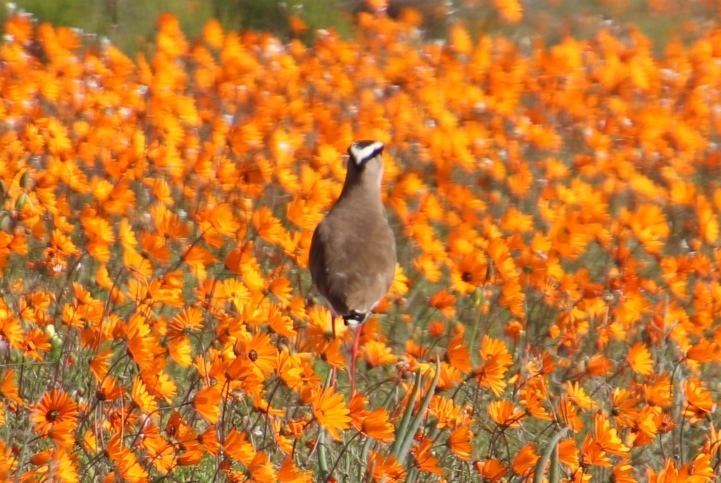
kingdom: Animalia
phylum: Chordata
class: Aves
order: Charadriiformes
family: Charadriidae
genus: Vanellus
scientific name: Vanellus coronatus
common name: Crowned lapwing
